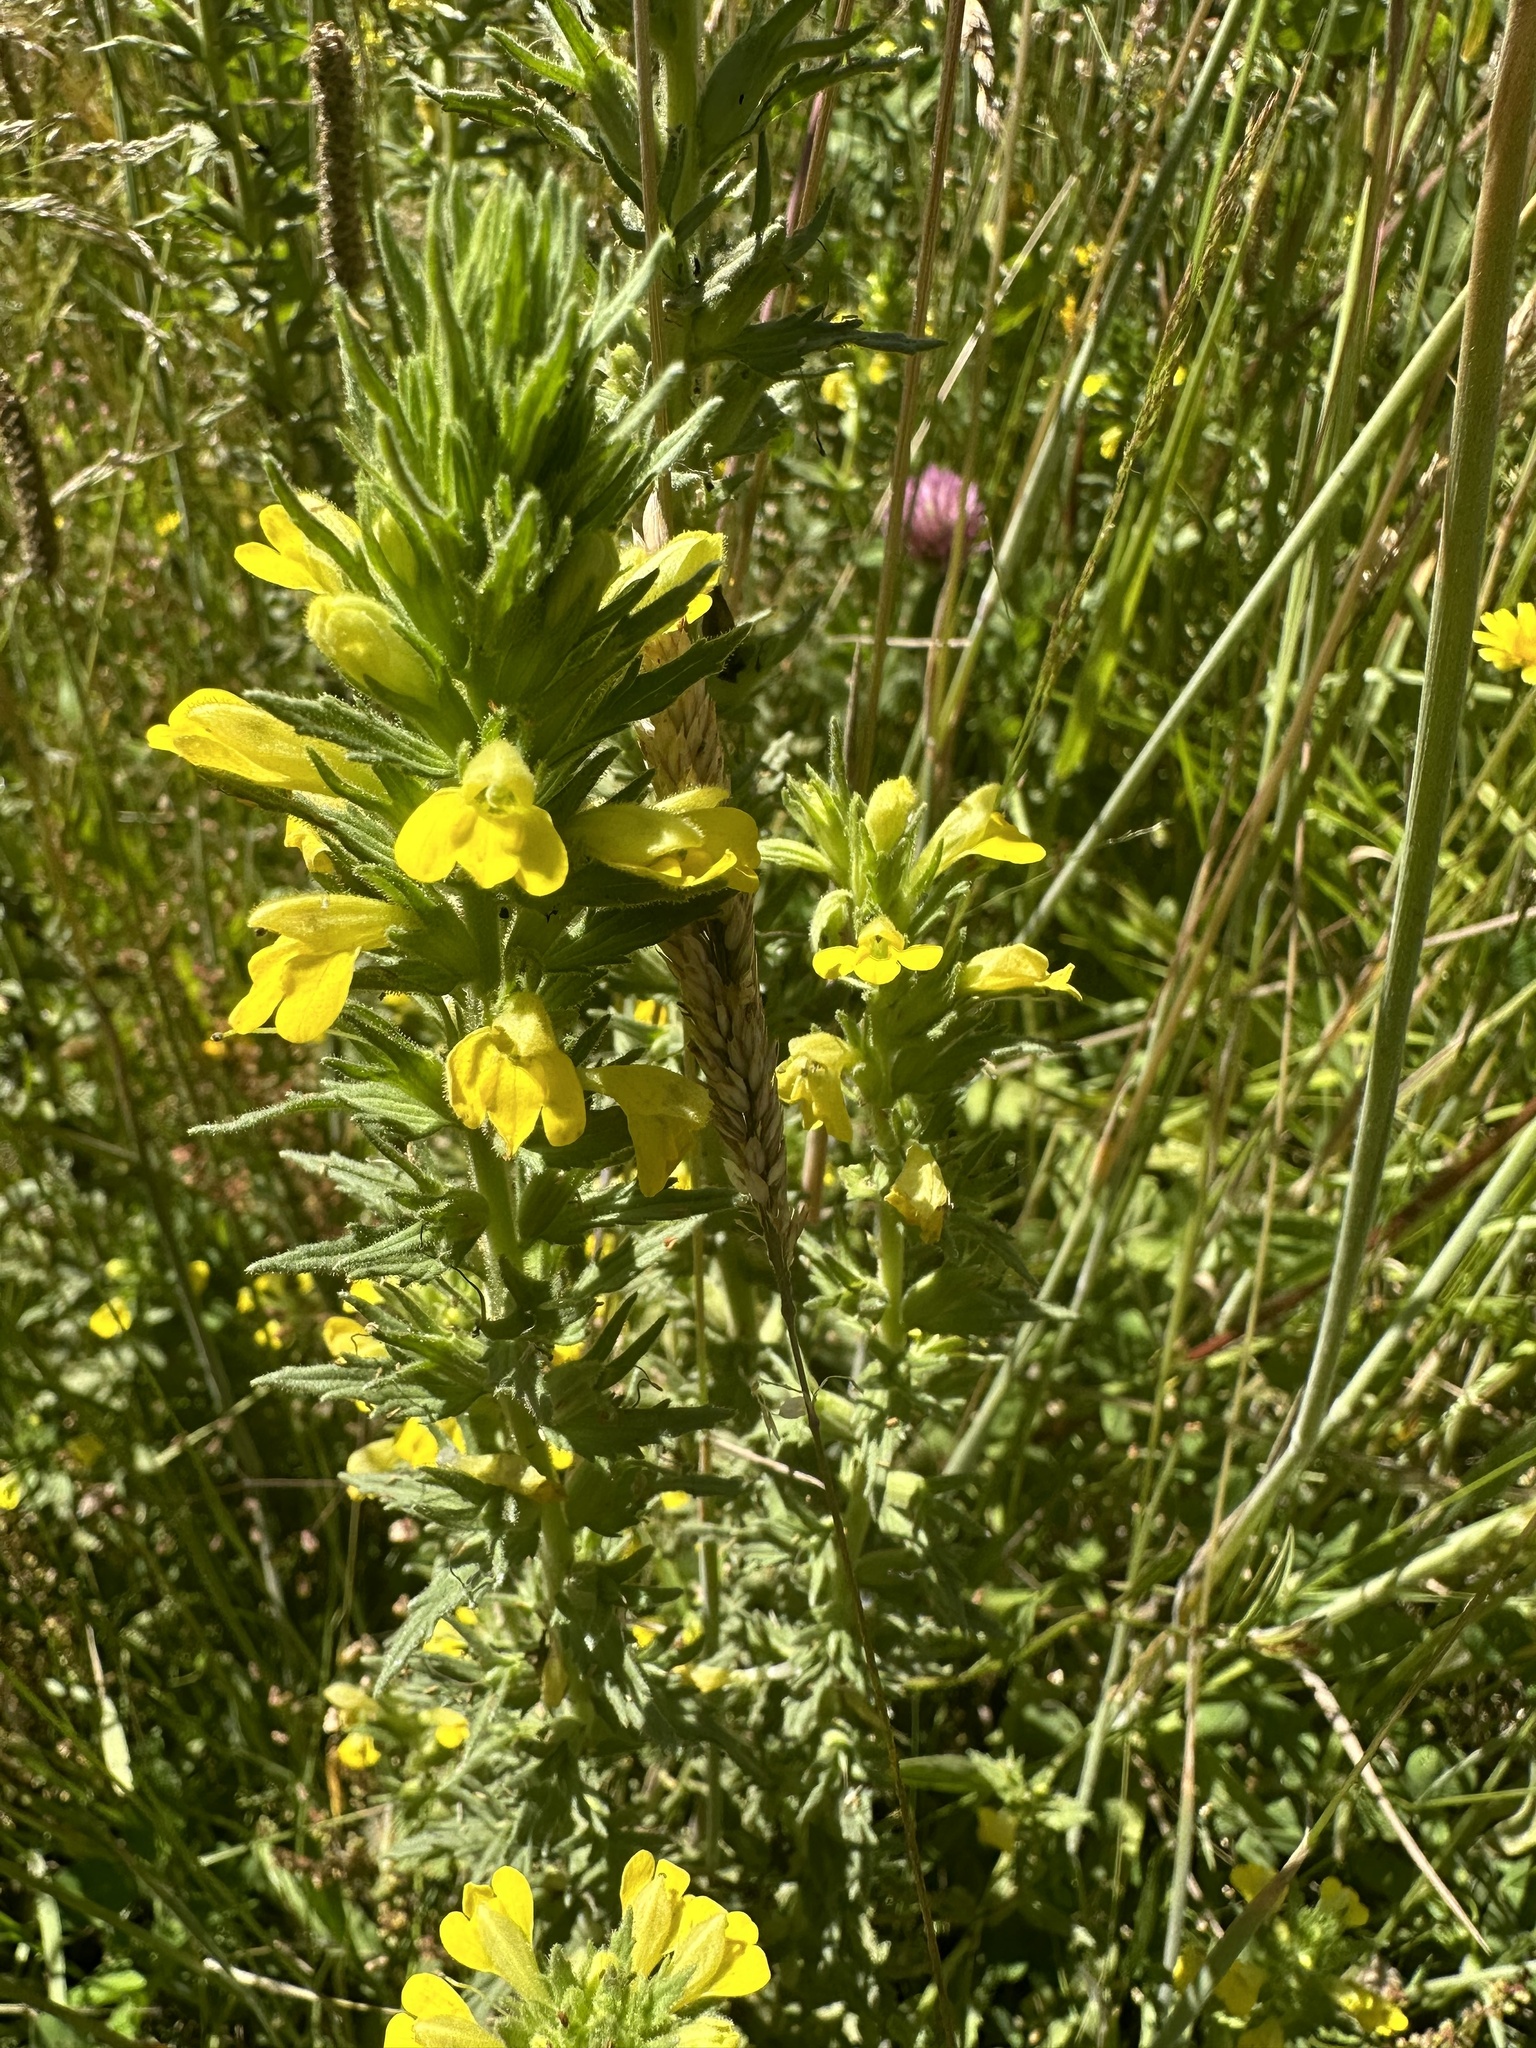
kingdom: Plantae
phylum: Tracheophyta
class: Magnoliopsida
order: Lamiales
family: Orobanchaceae
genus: Bellardia
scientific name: Bellardia viscosa
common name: Sticky parentucellia
